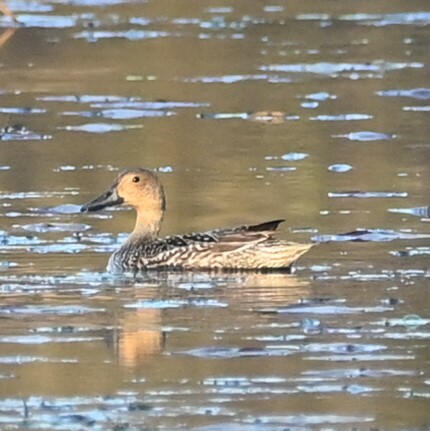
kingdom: Animalia
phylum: Chordata
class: Aves
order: Anseriformes
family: Anatidae
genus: Anas
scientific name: Anas acuta
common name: Northern pintail
